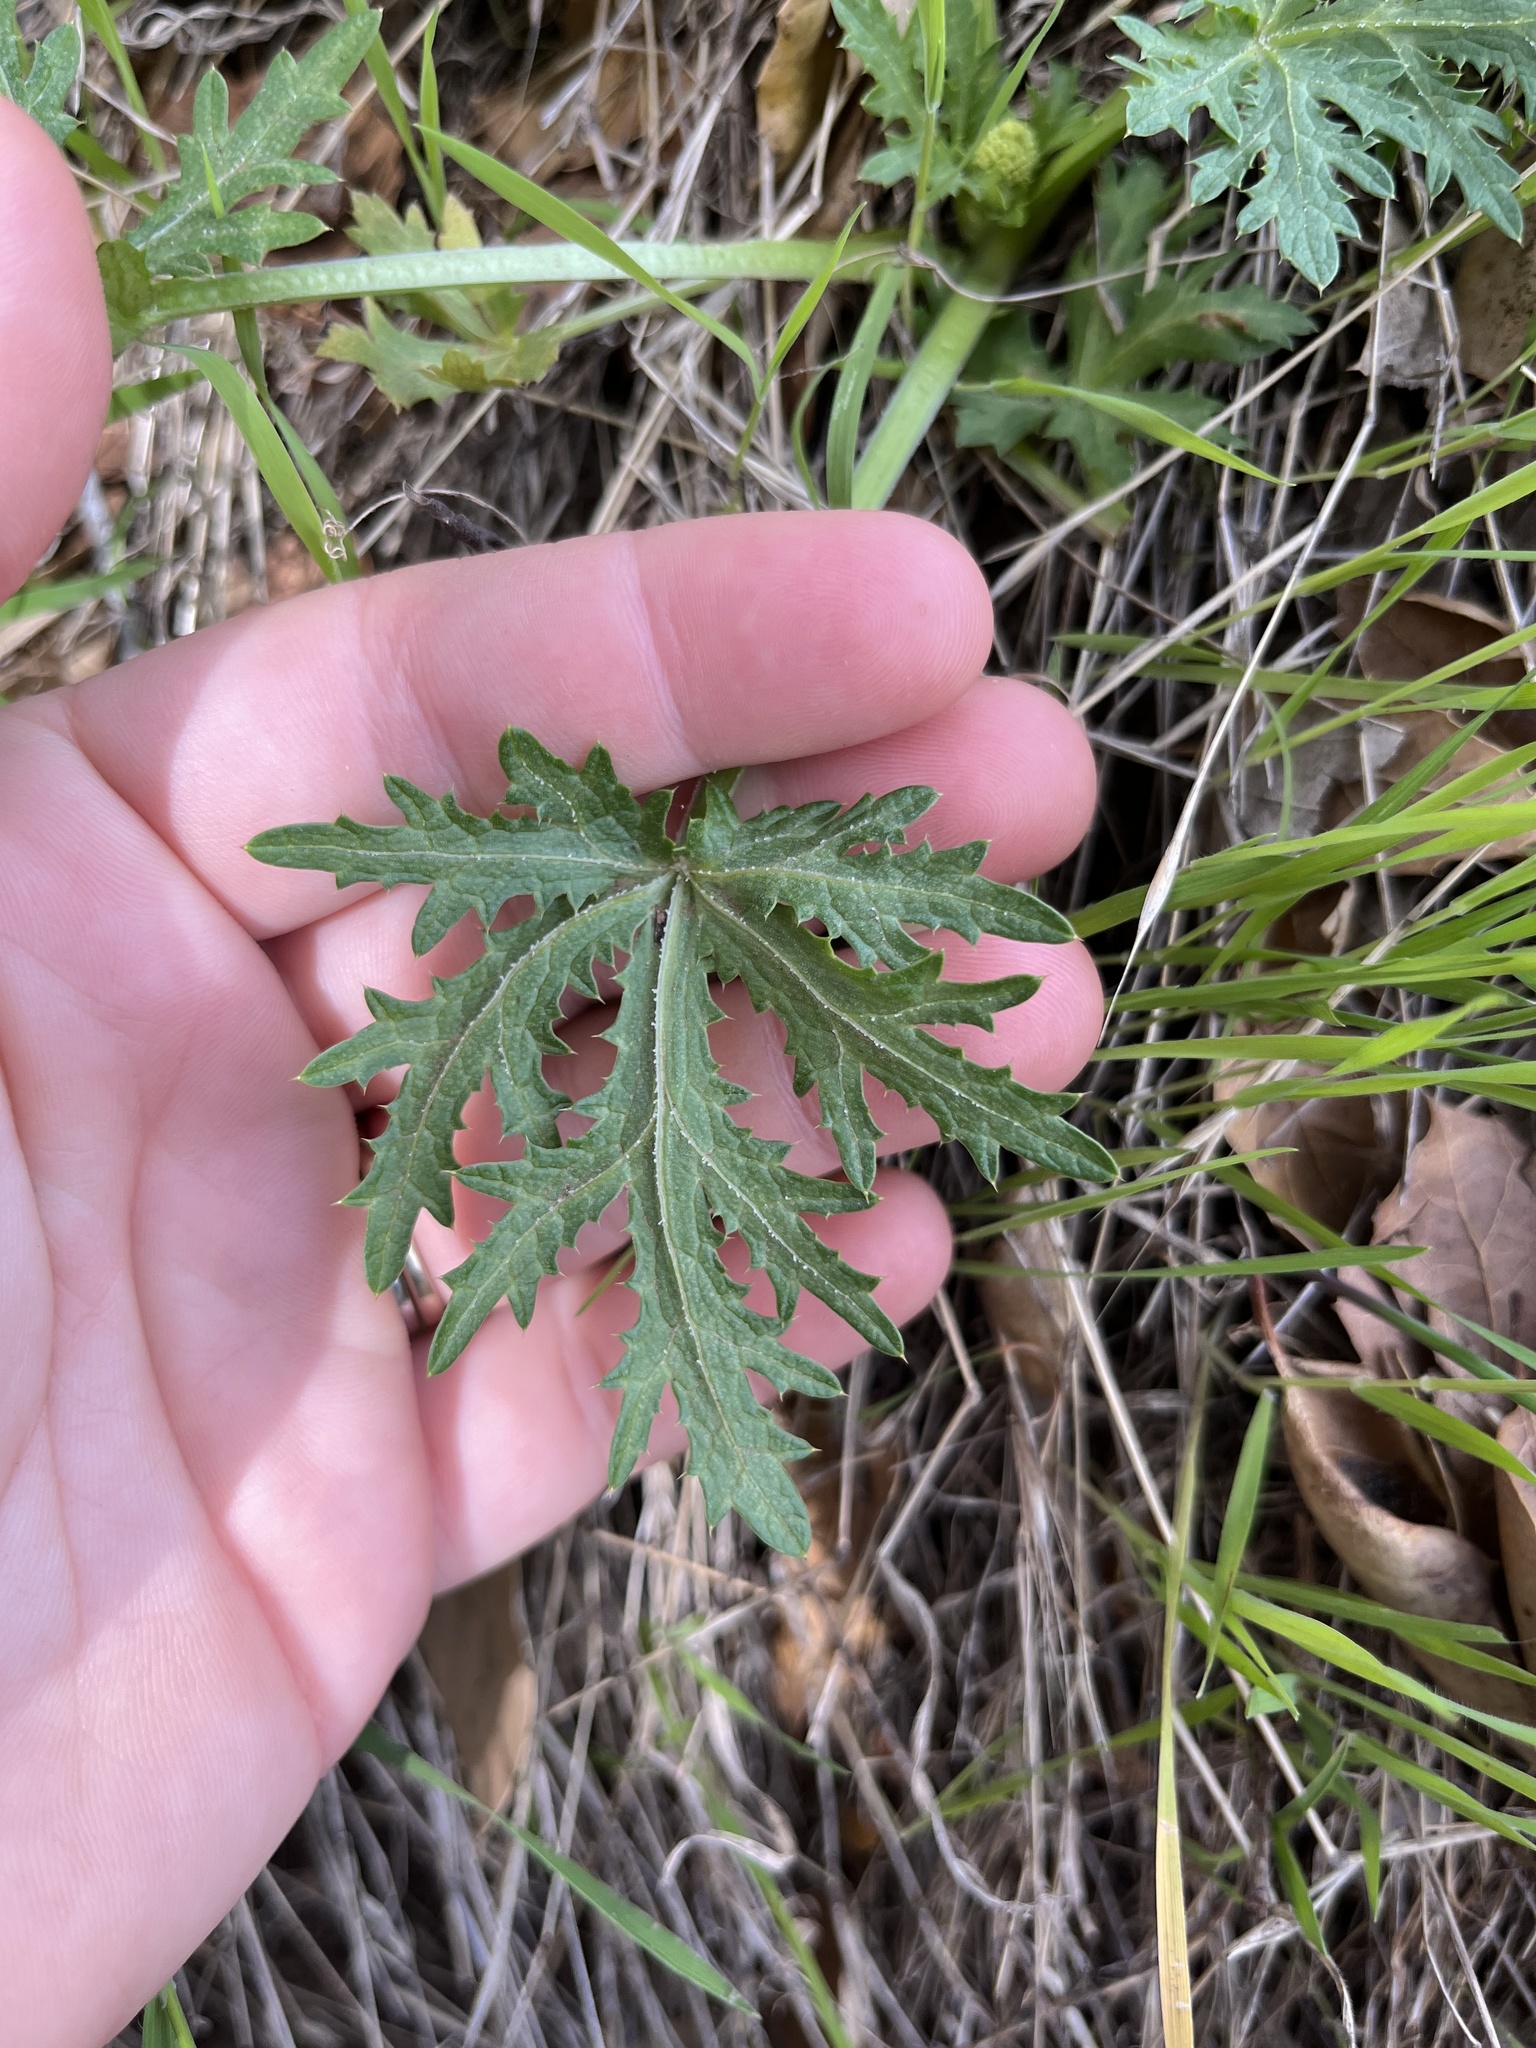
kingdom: Plantae
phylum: Tracheophyta
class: Magnoliopsida
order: Apiales
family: Apiaceae
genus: Sanicula
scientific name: Sanicula arguta
